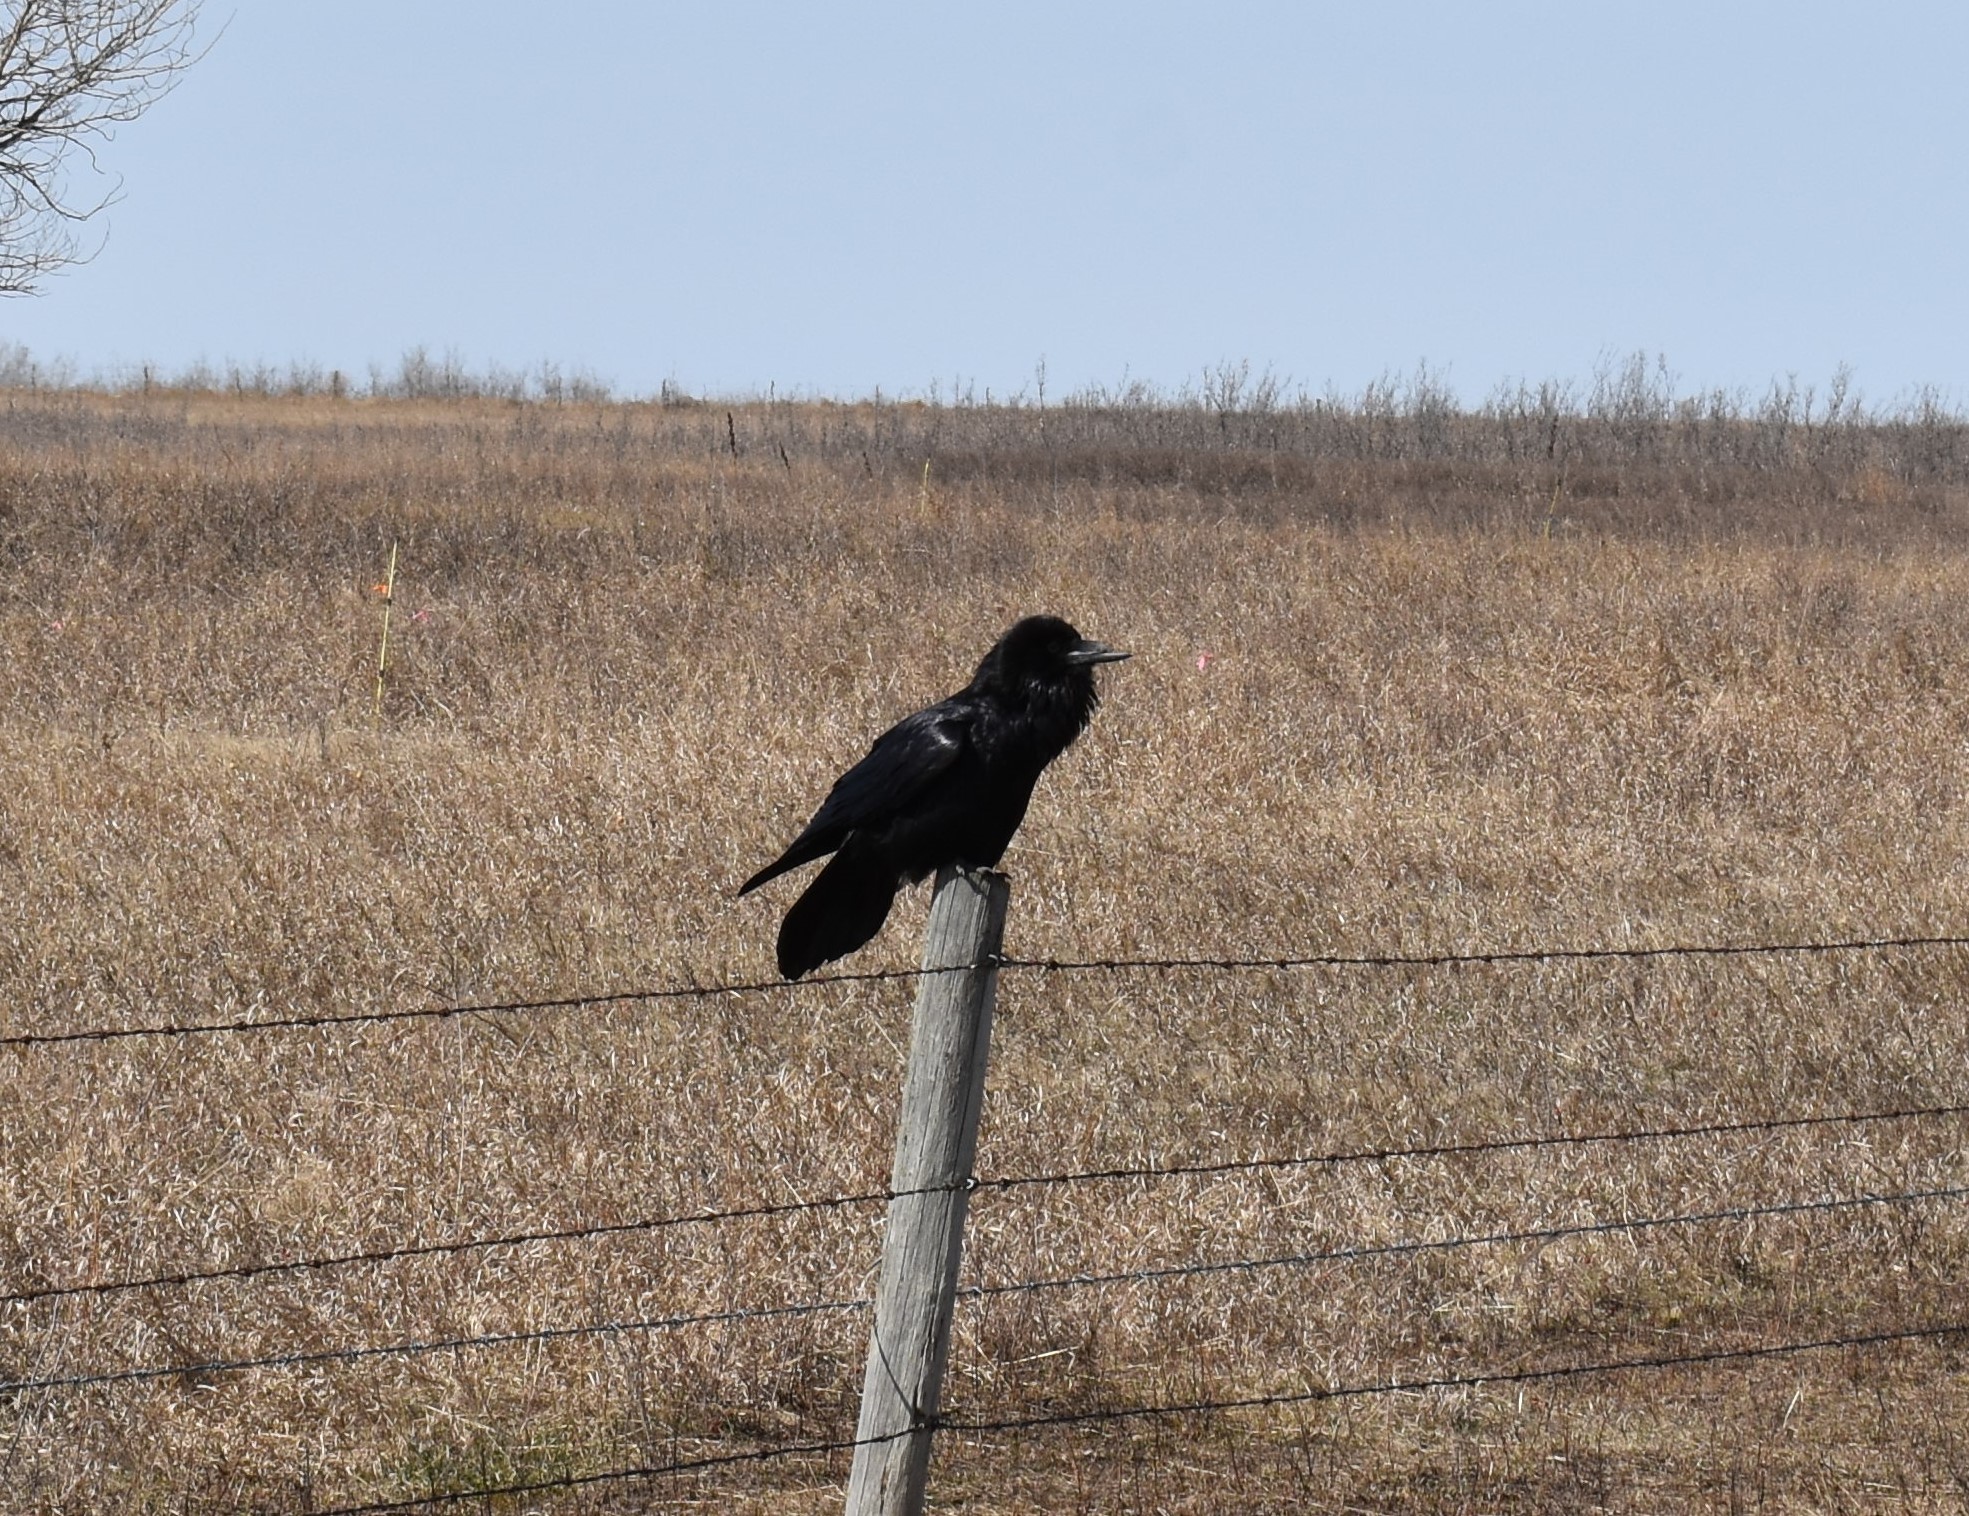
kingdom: Animalia
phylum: Chordata
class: Aves
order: Passeriformes
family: Corvidae
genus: Corvus
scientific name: Corvus corax
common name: Common raven
